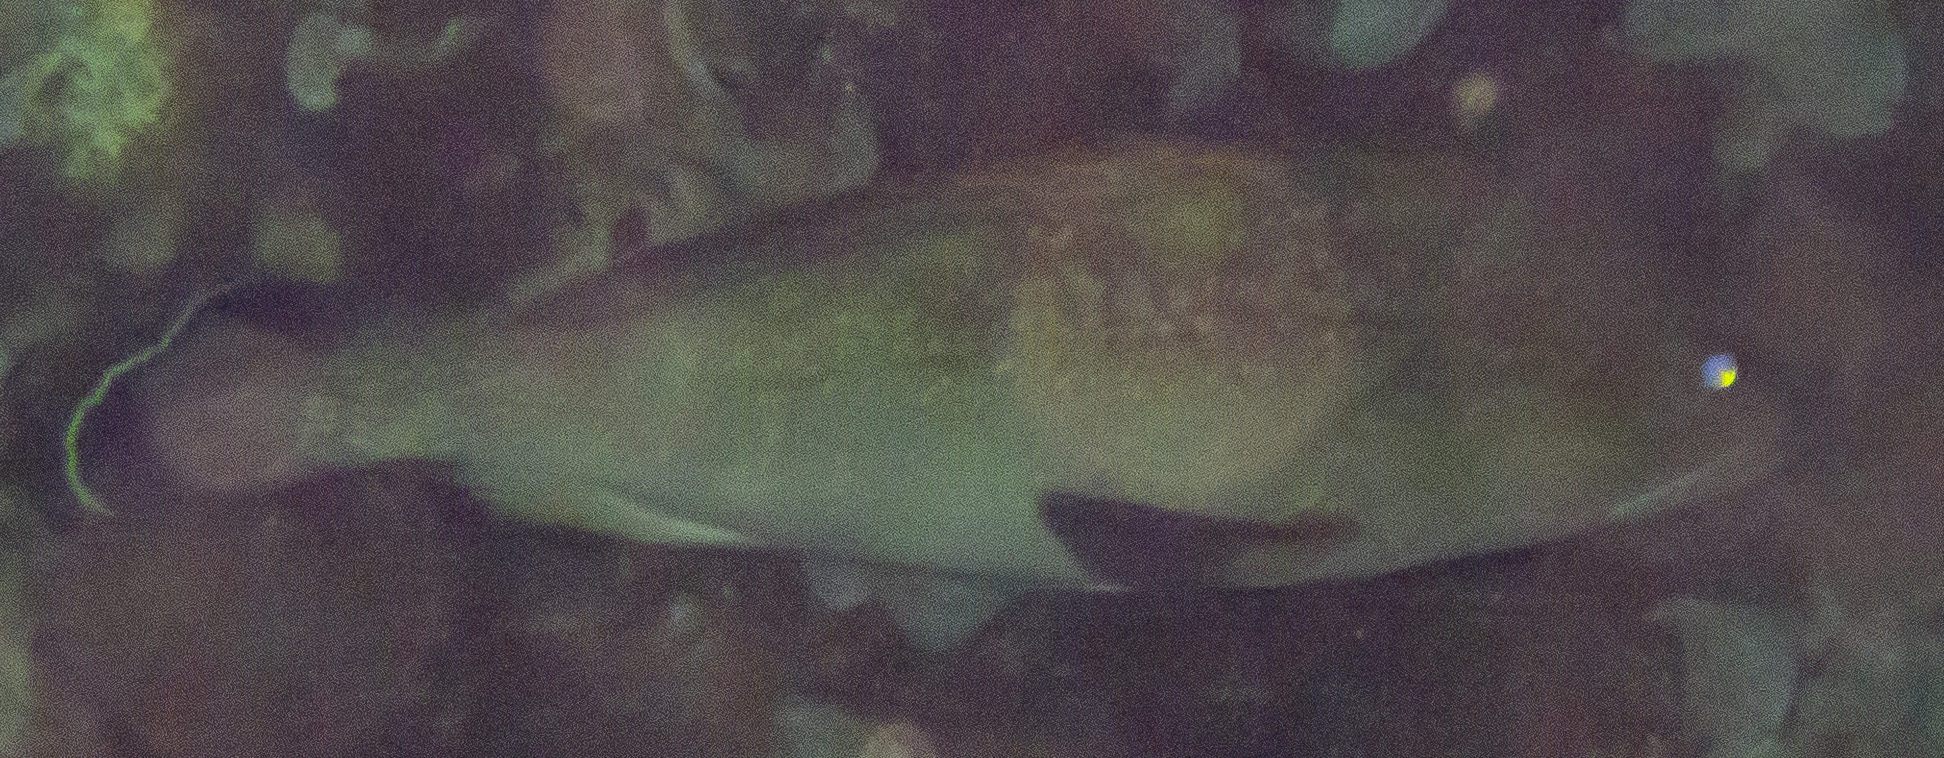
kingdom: Animalia
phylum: Chordata
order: Perciformes
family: Serranidae
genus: Epinephelus
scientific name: Epinephelus marginatus
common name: Dusky grouper
